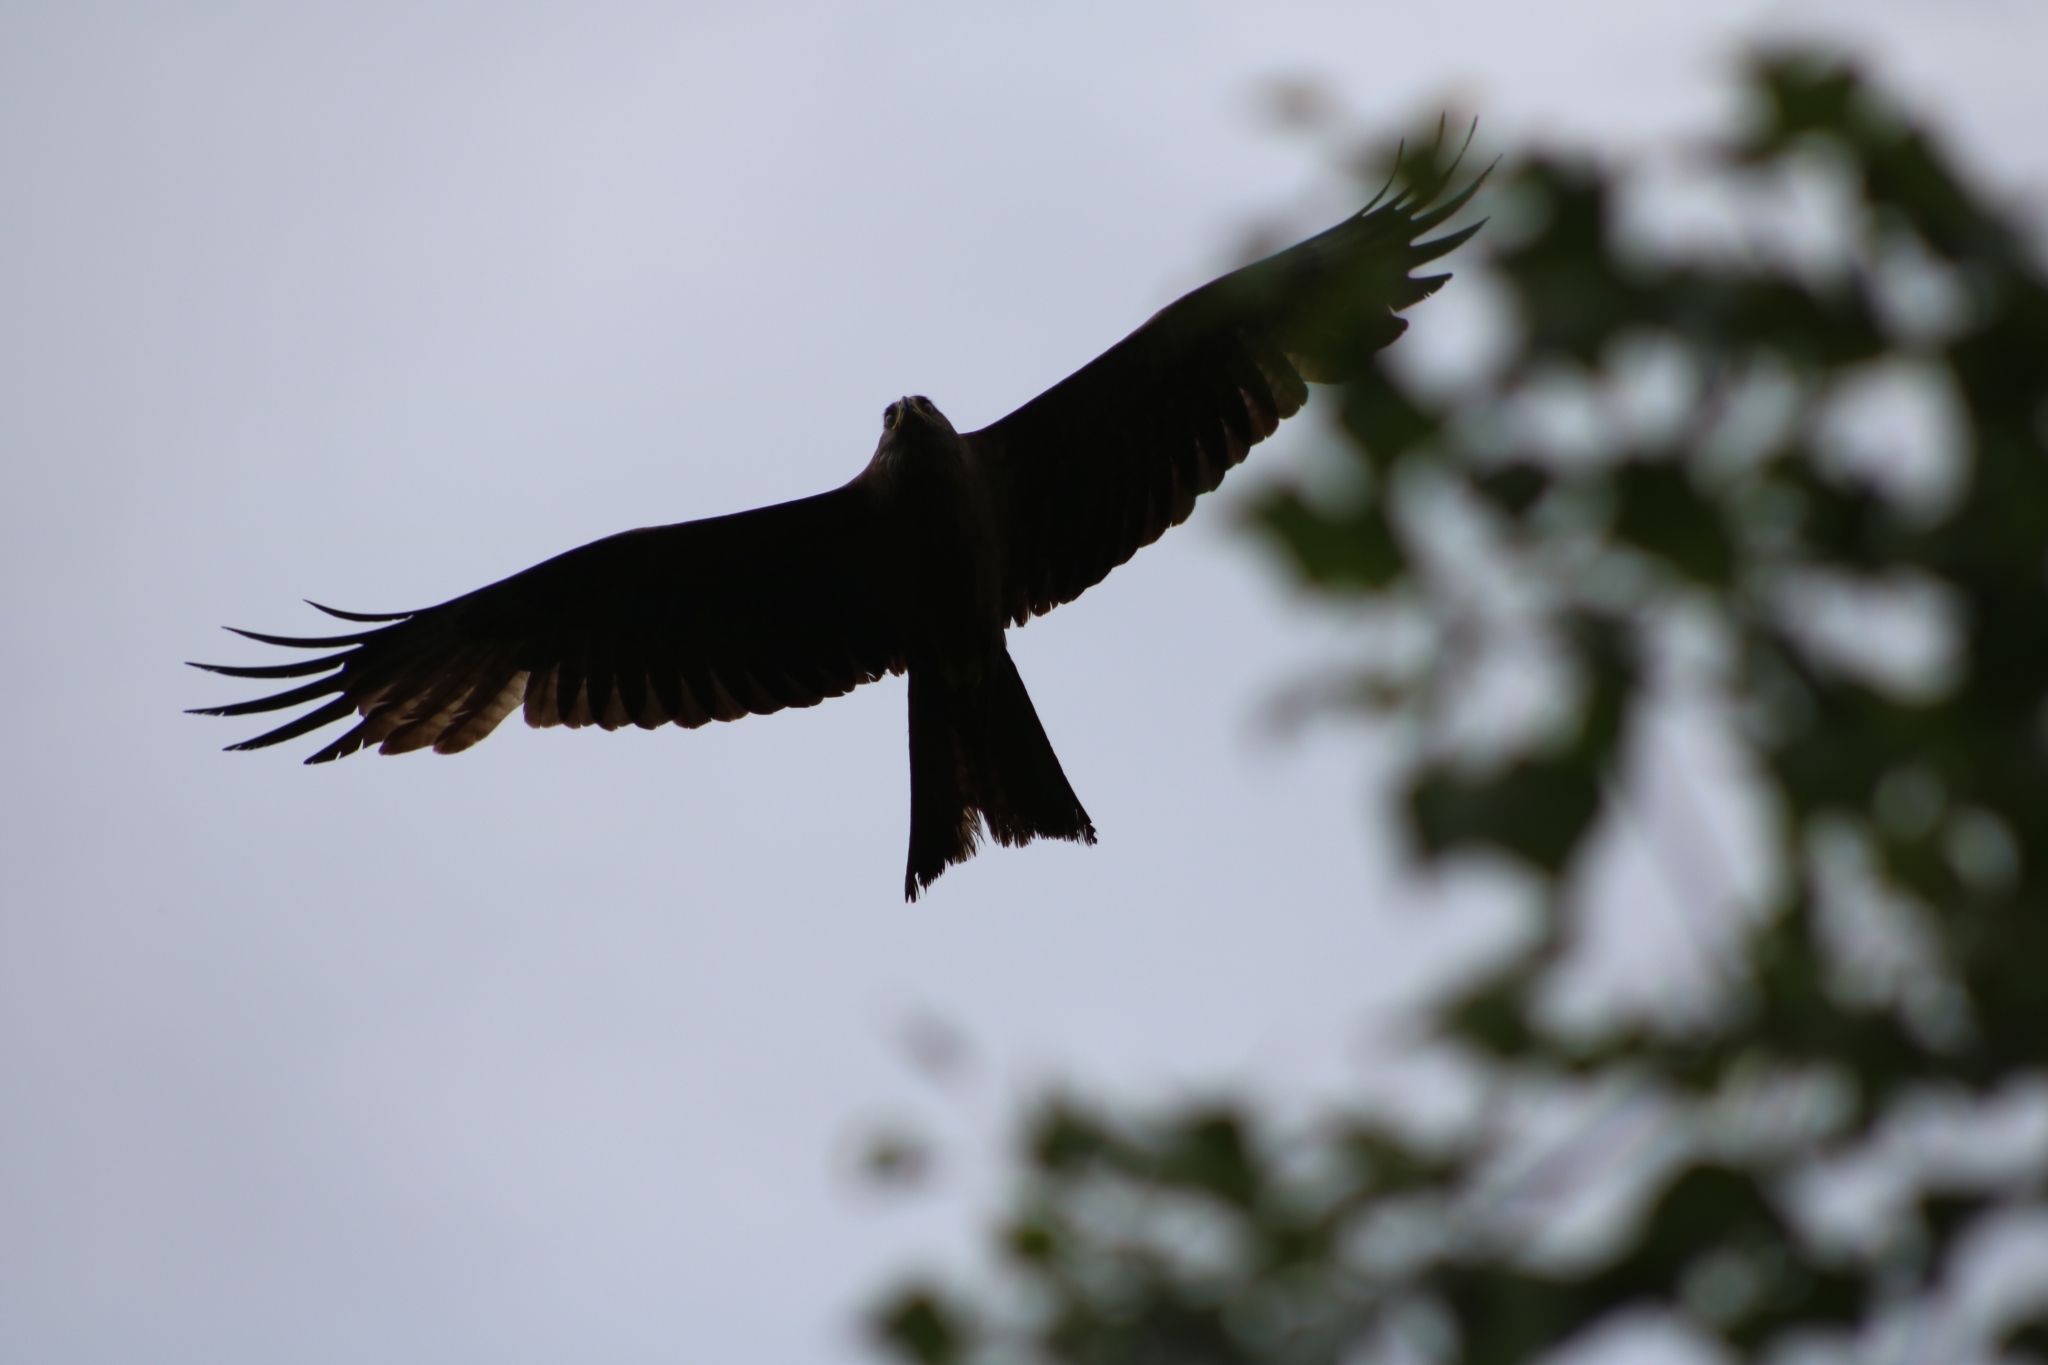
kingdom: Animalia
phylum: Chordata
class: Aves
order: Accipitriformes
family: Accipitridae
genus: Milvus
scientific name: Milvus migrans
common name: Black kite
